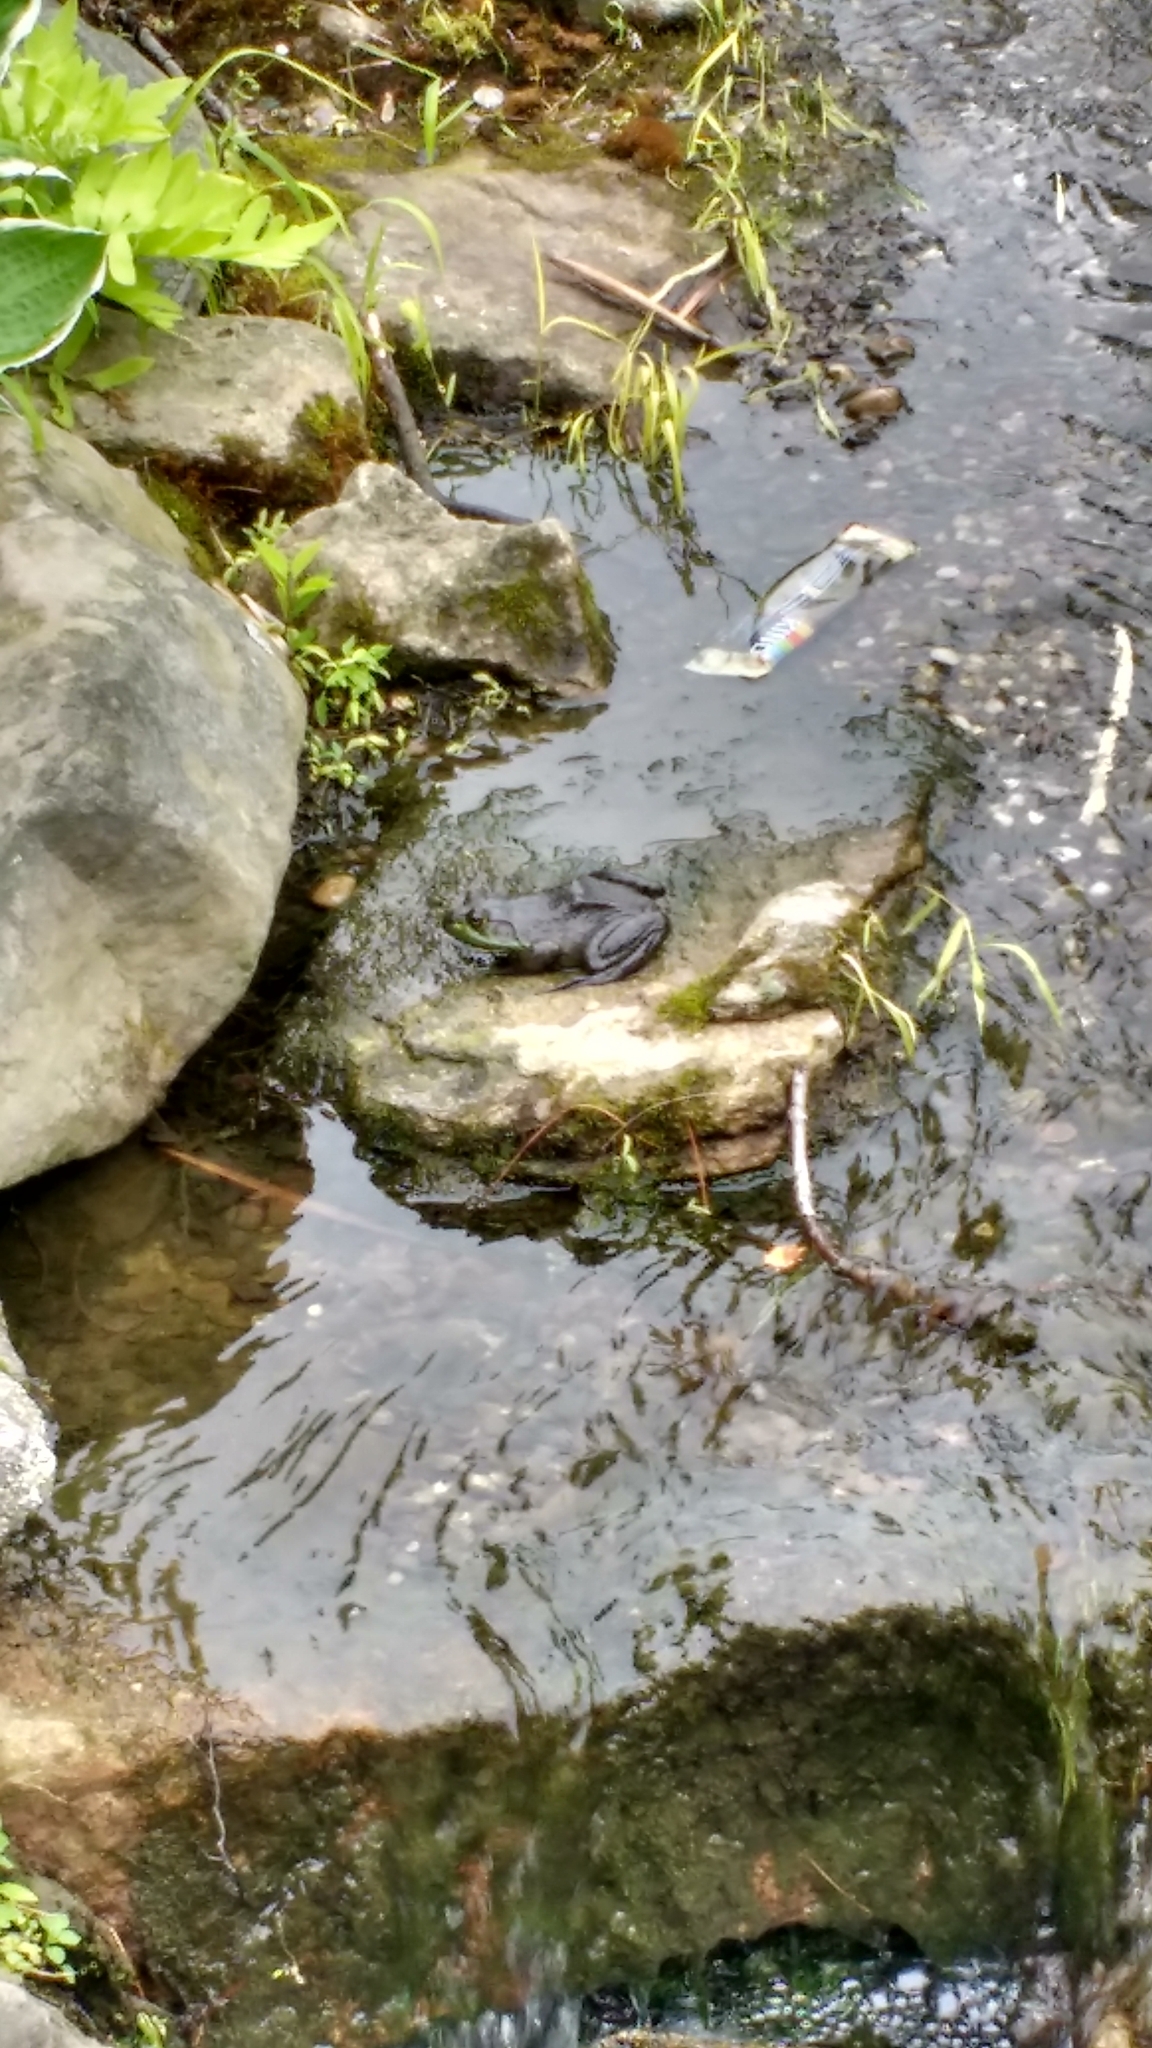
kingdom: Animalia
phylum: Chordata
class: Amphibia
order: Anura
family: Ranidae
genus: Lithobates
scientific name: Lithobates catesbeianus
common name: American bullfrog
